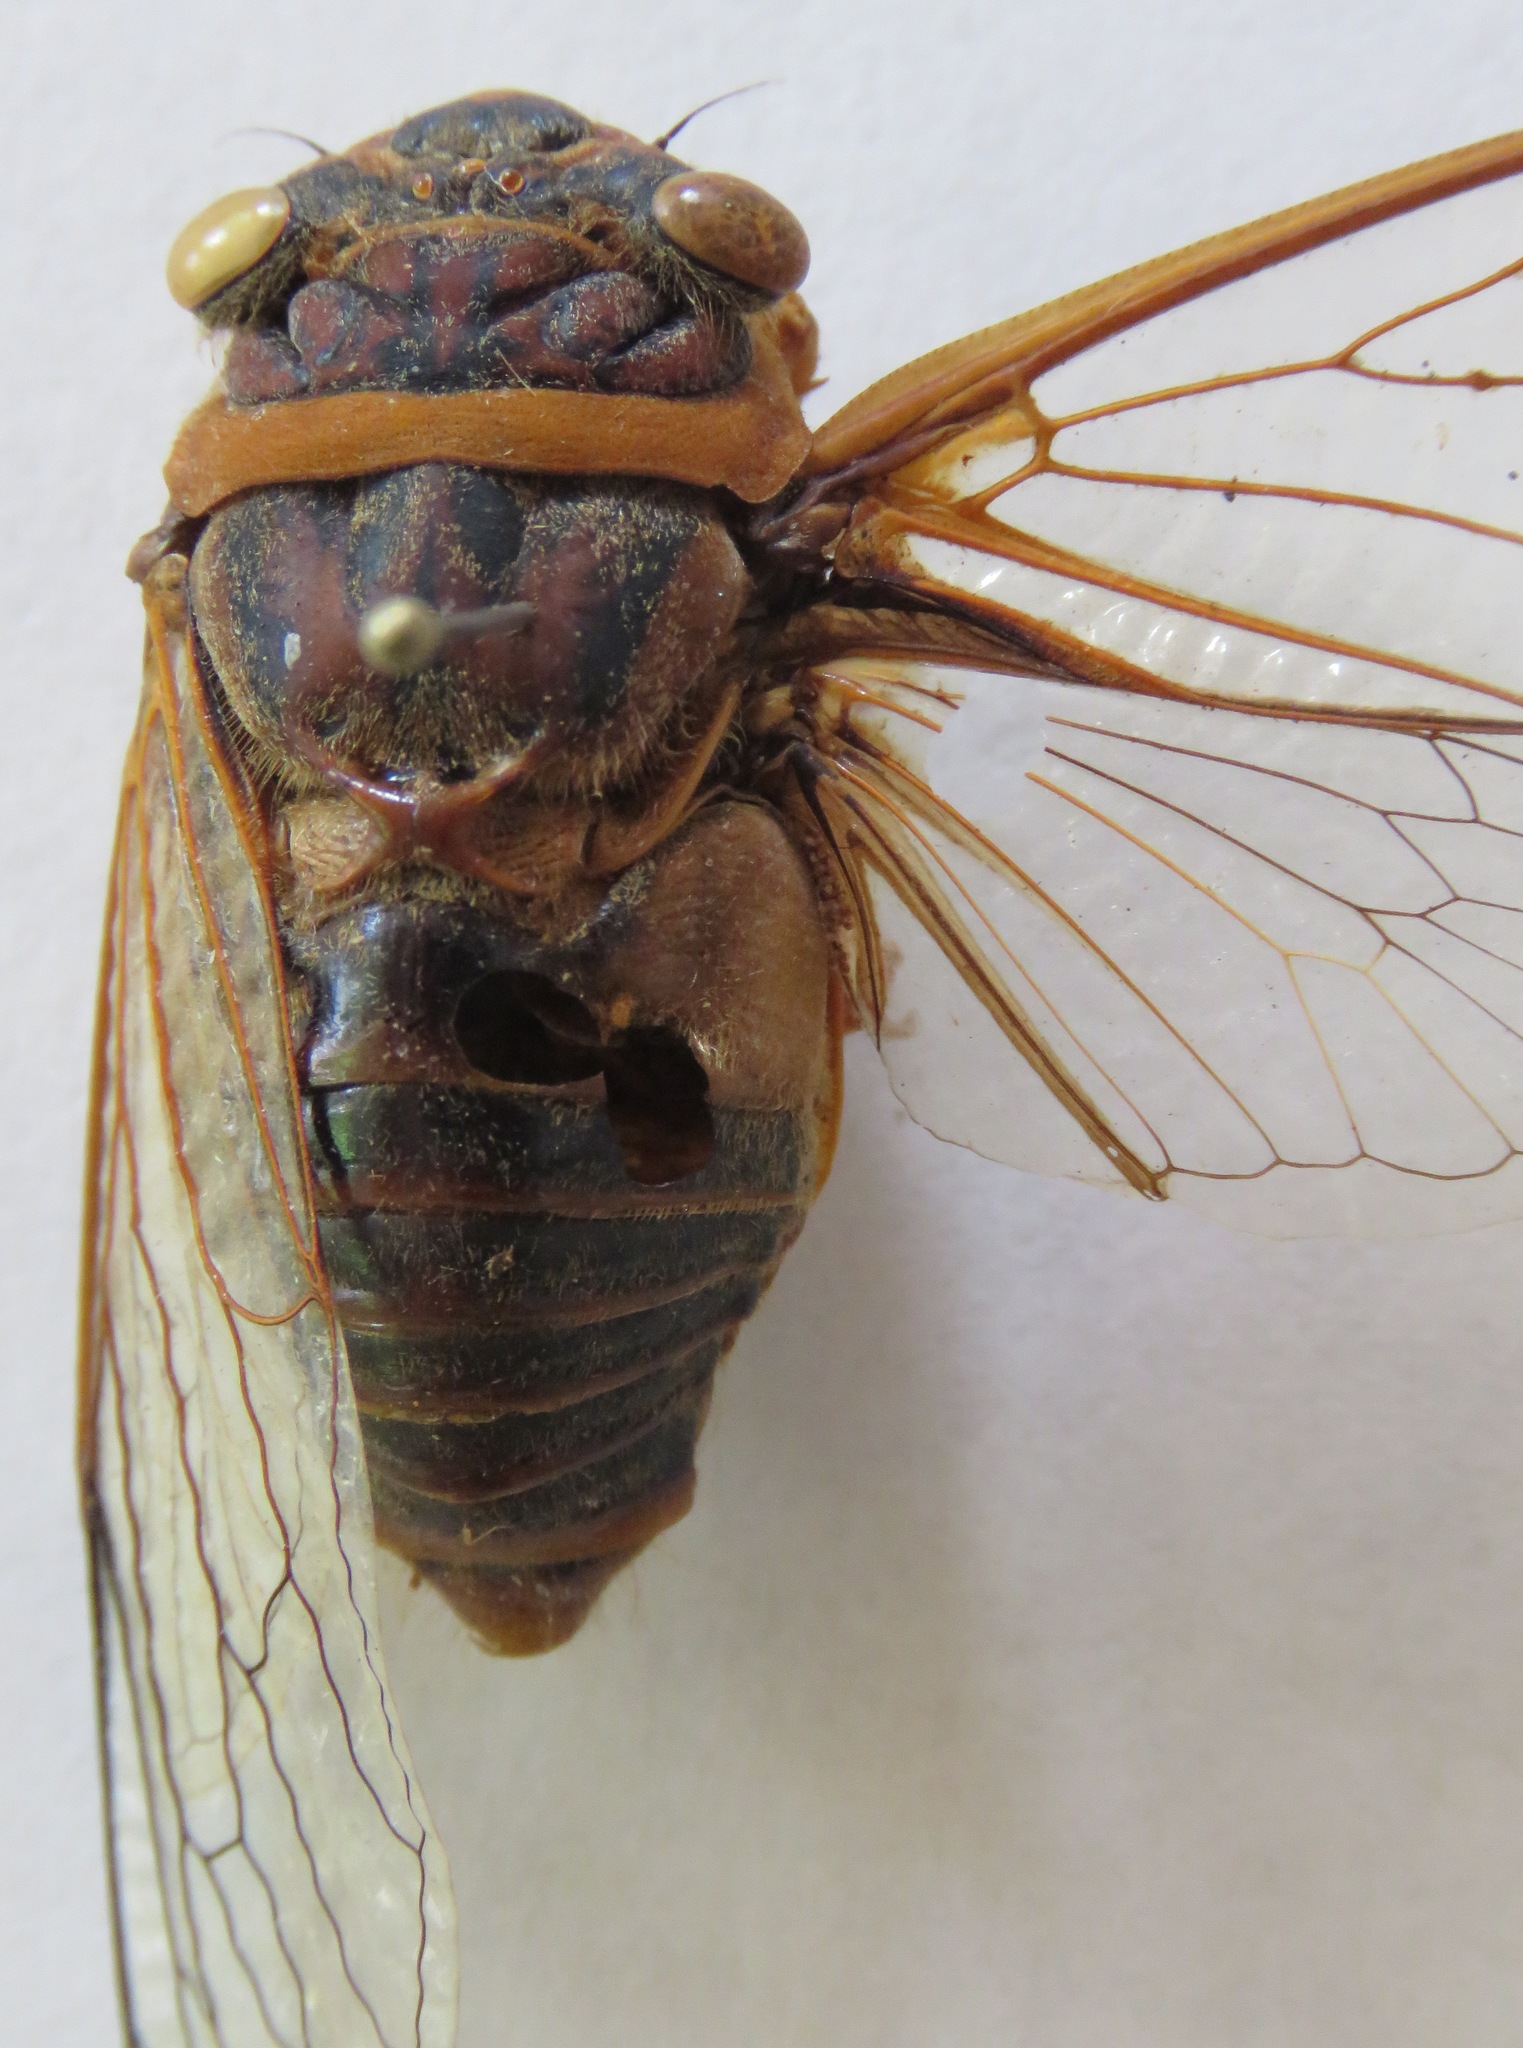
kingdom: Animalia
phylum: Arthropoda
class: Insecta
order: Hemiptera
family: Cicadidae
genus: Diceroprocta
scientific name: Diceroprocta ruatana
